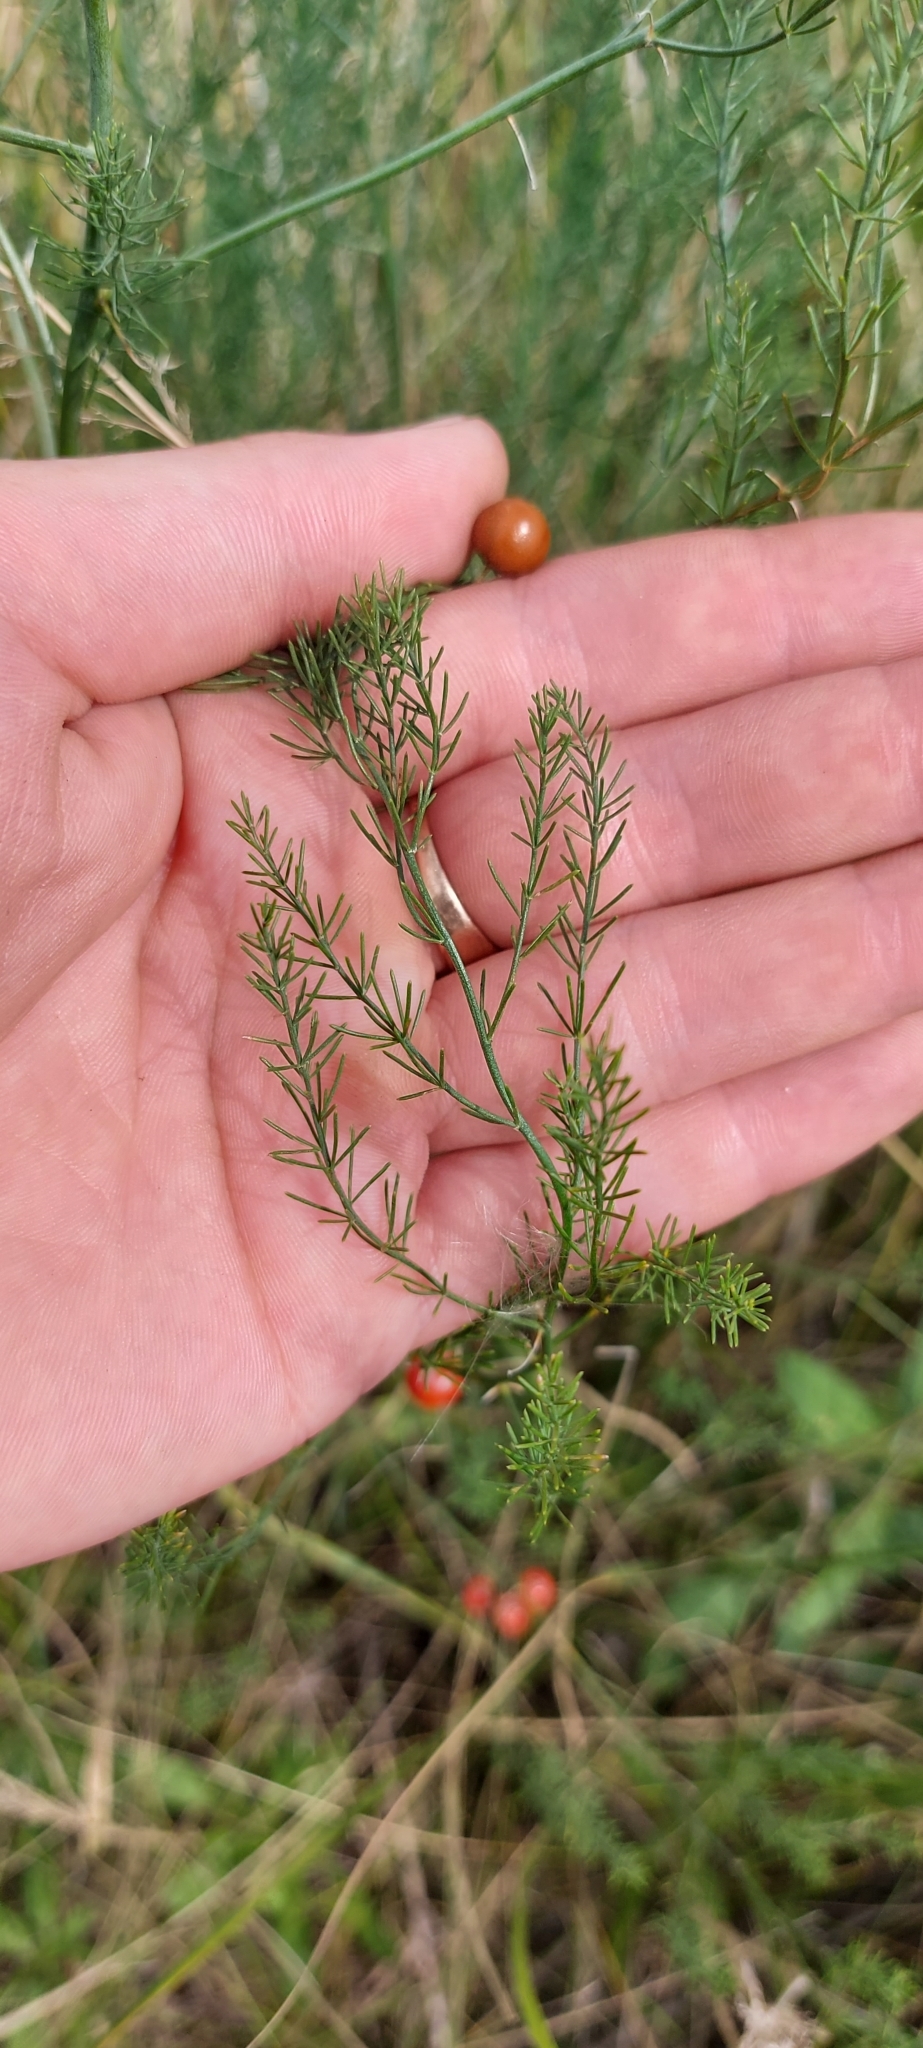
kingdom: Plantae
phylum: Tracheophyta
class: Liliopsida
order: Asparagales
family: Asparagaceae
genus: Asparagus
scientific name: Asparagus officinalis
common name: Garden asparagus
